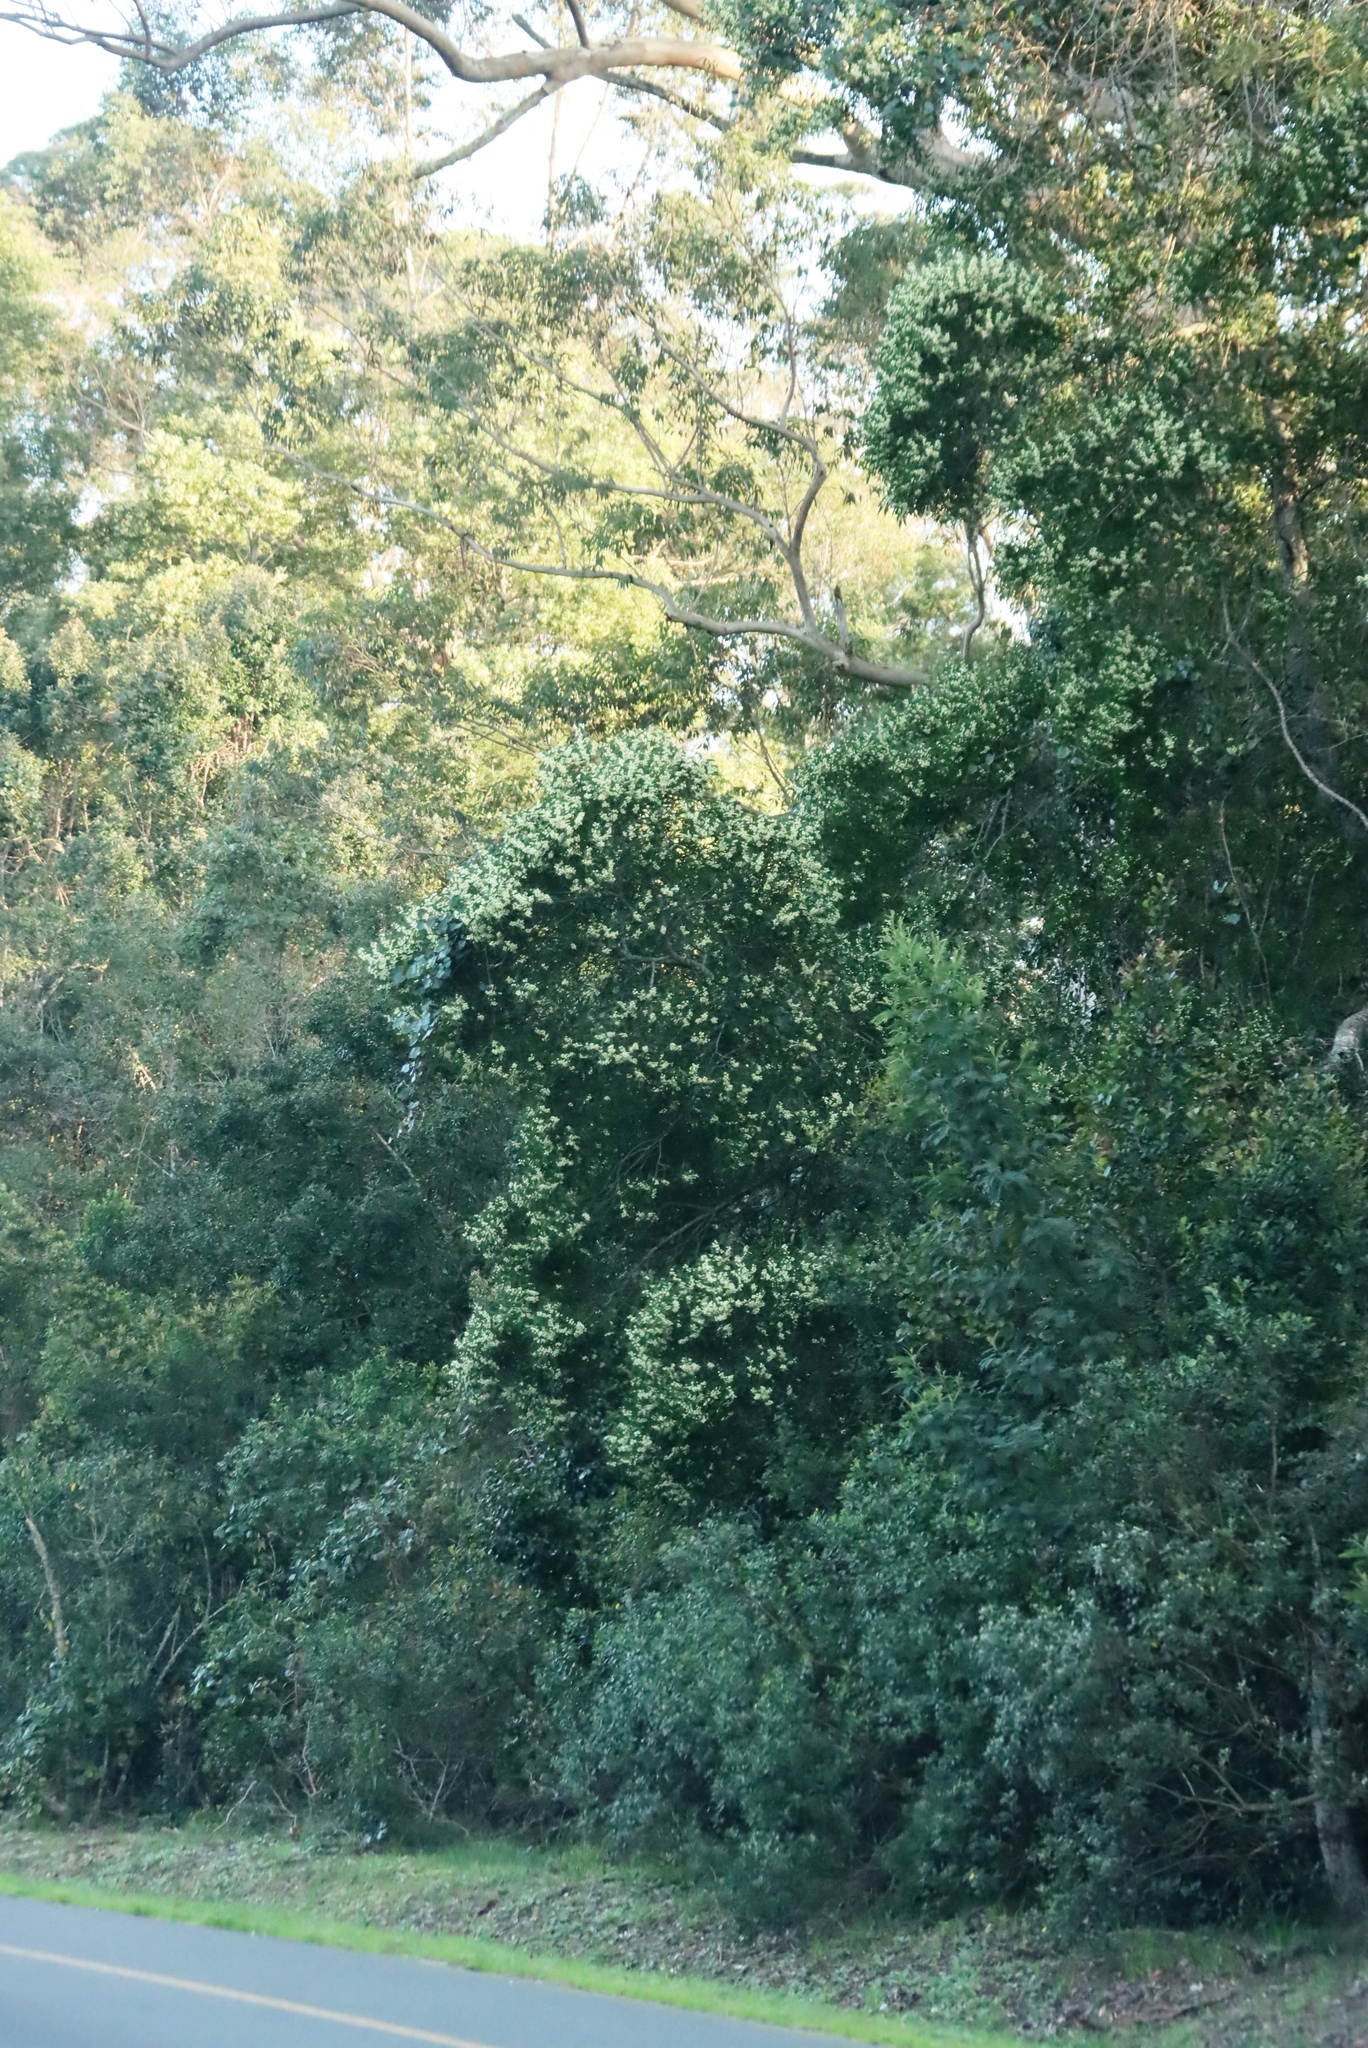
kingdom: Plantae
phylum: Tracheophyta
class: Magnoliopsida
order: Fabales
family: Fabaceae
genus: Acacia
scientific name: Acacia melanoxylon
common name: Blackwood
